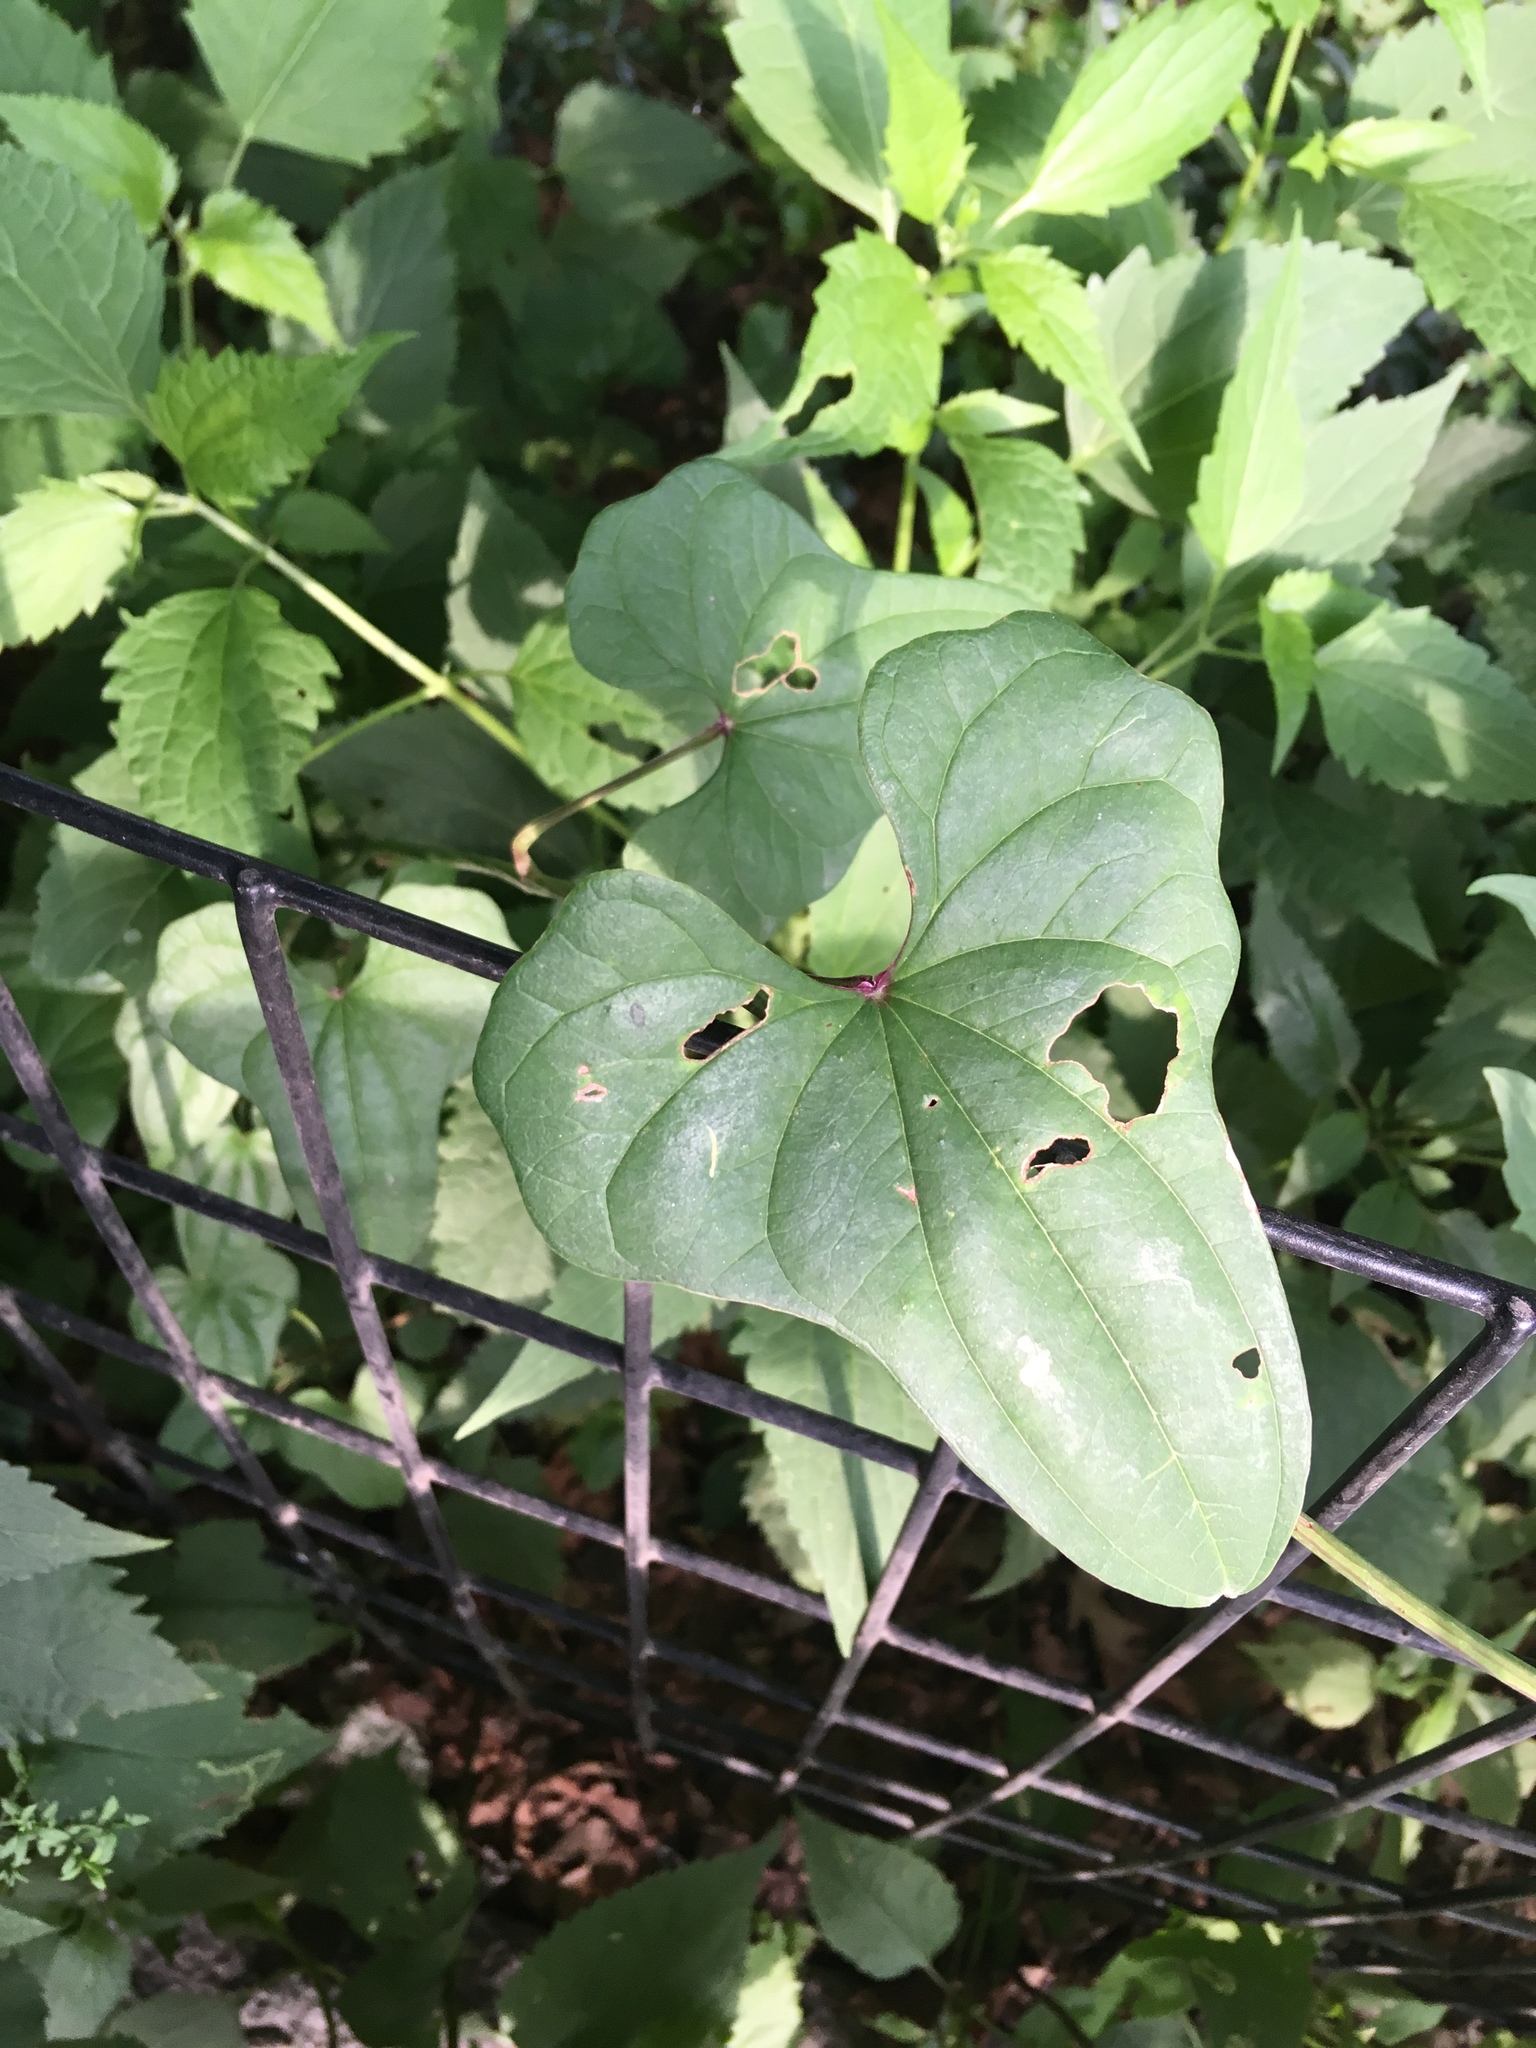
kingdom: Plantae
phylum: Tracheophyta
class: Liliopsida
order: Dioscoreales
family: Dioscoreaceae
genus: Dioscorea
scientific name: Dioscorea polystachya
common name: Chinese yam
